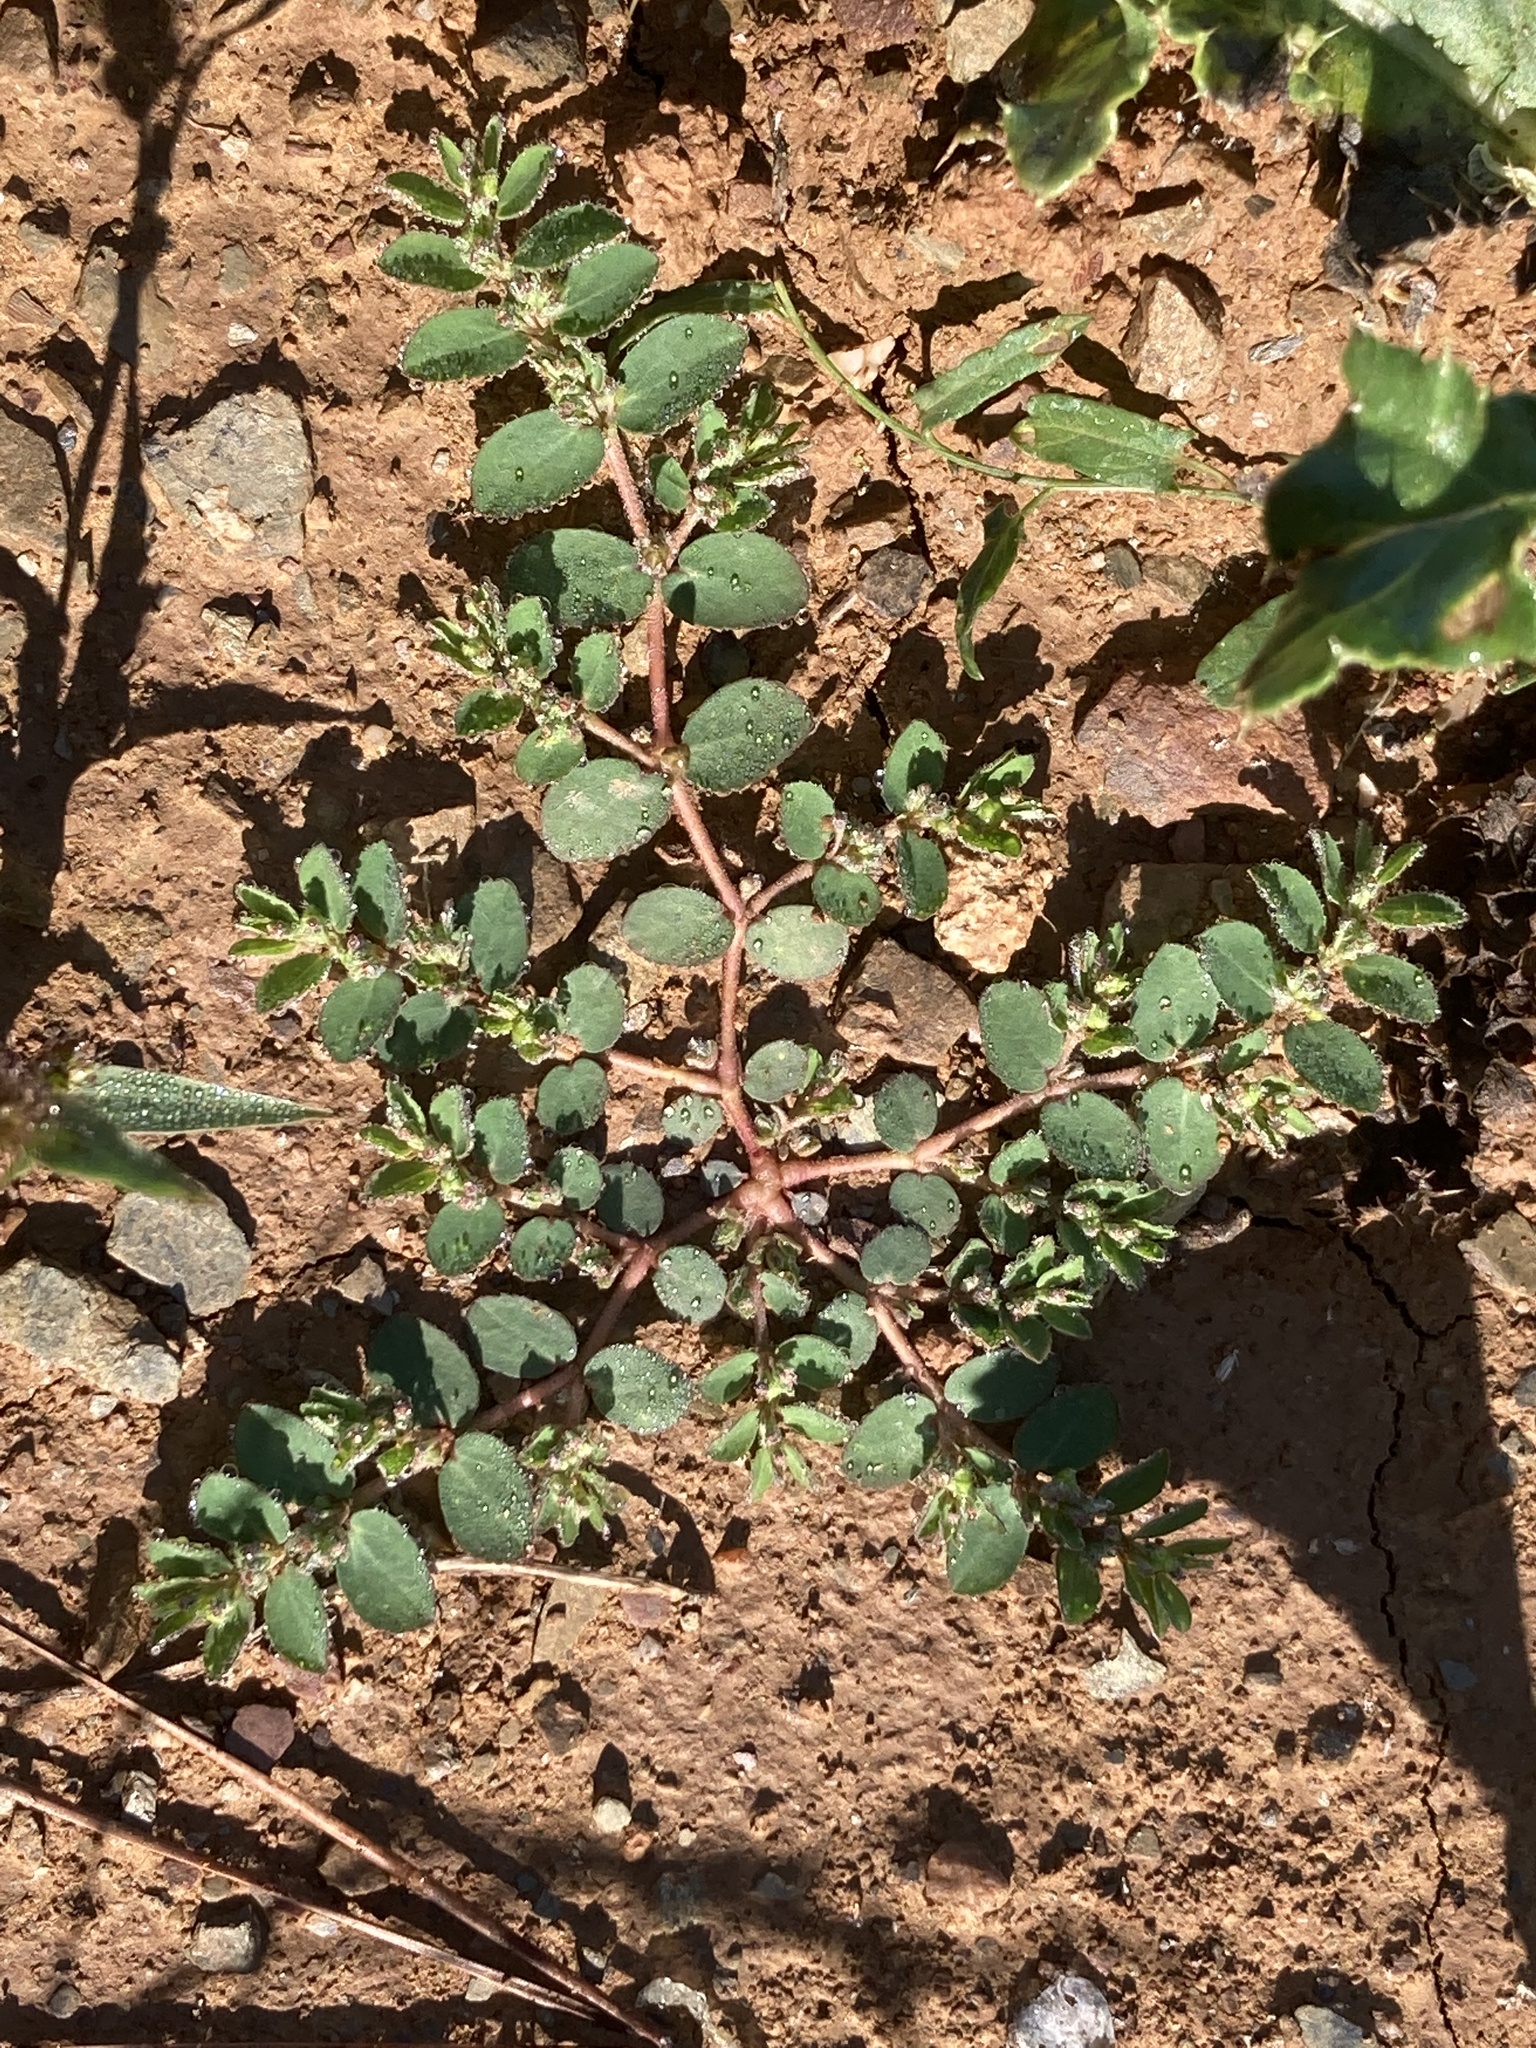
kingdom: Plantae
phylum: Tracheophyta
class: Magnoliopsida
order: Malpighiales
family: Euphorbiaceae
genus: Euphorbia
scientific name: Euphorbia prostrata
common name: Prostrate sandmat
